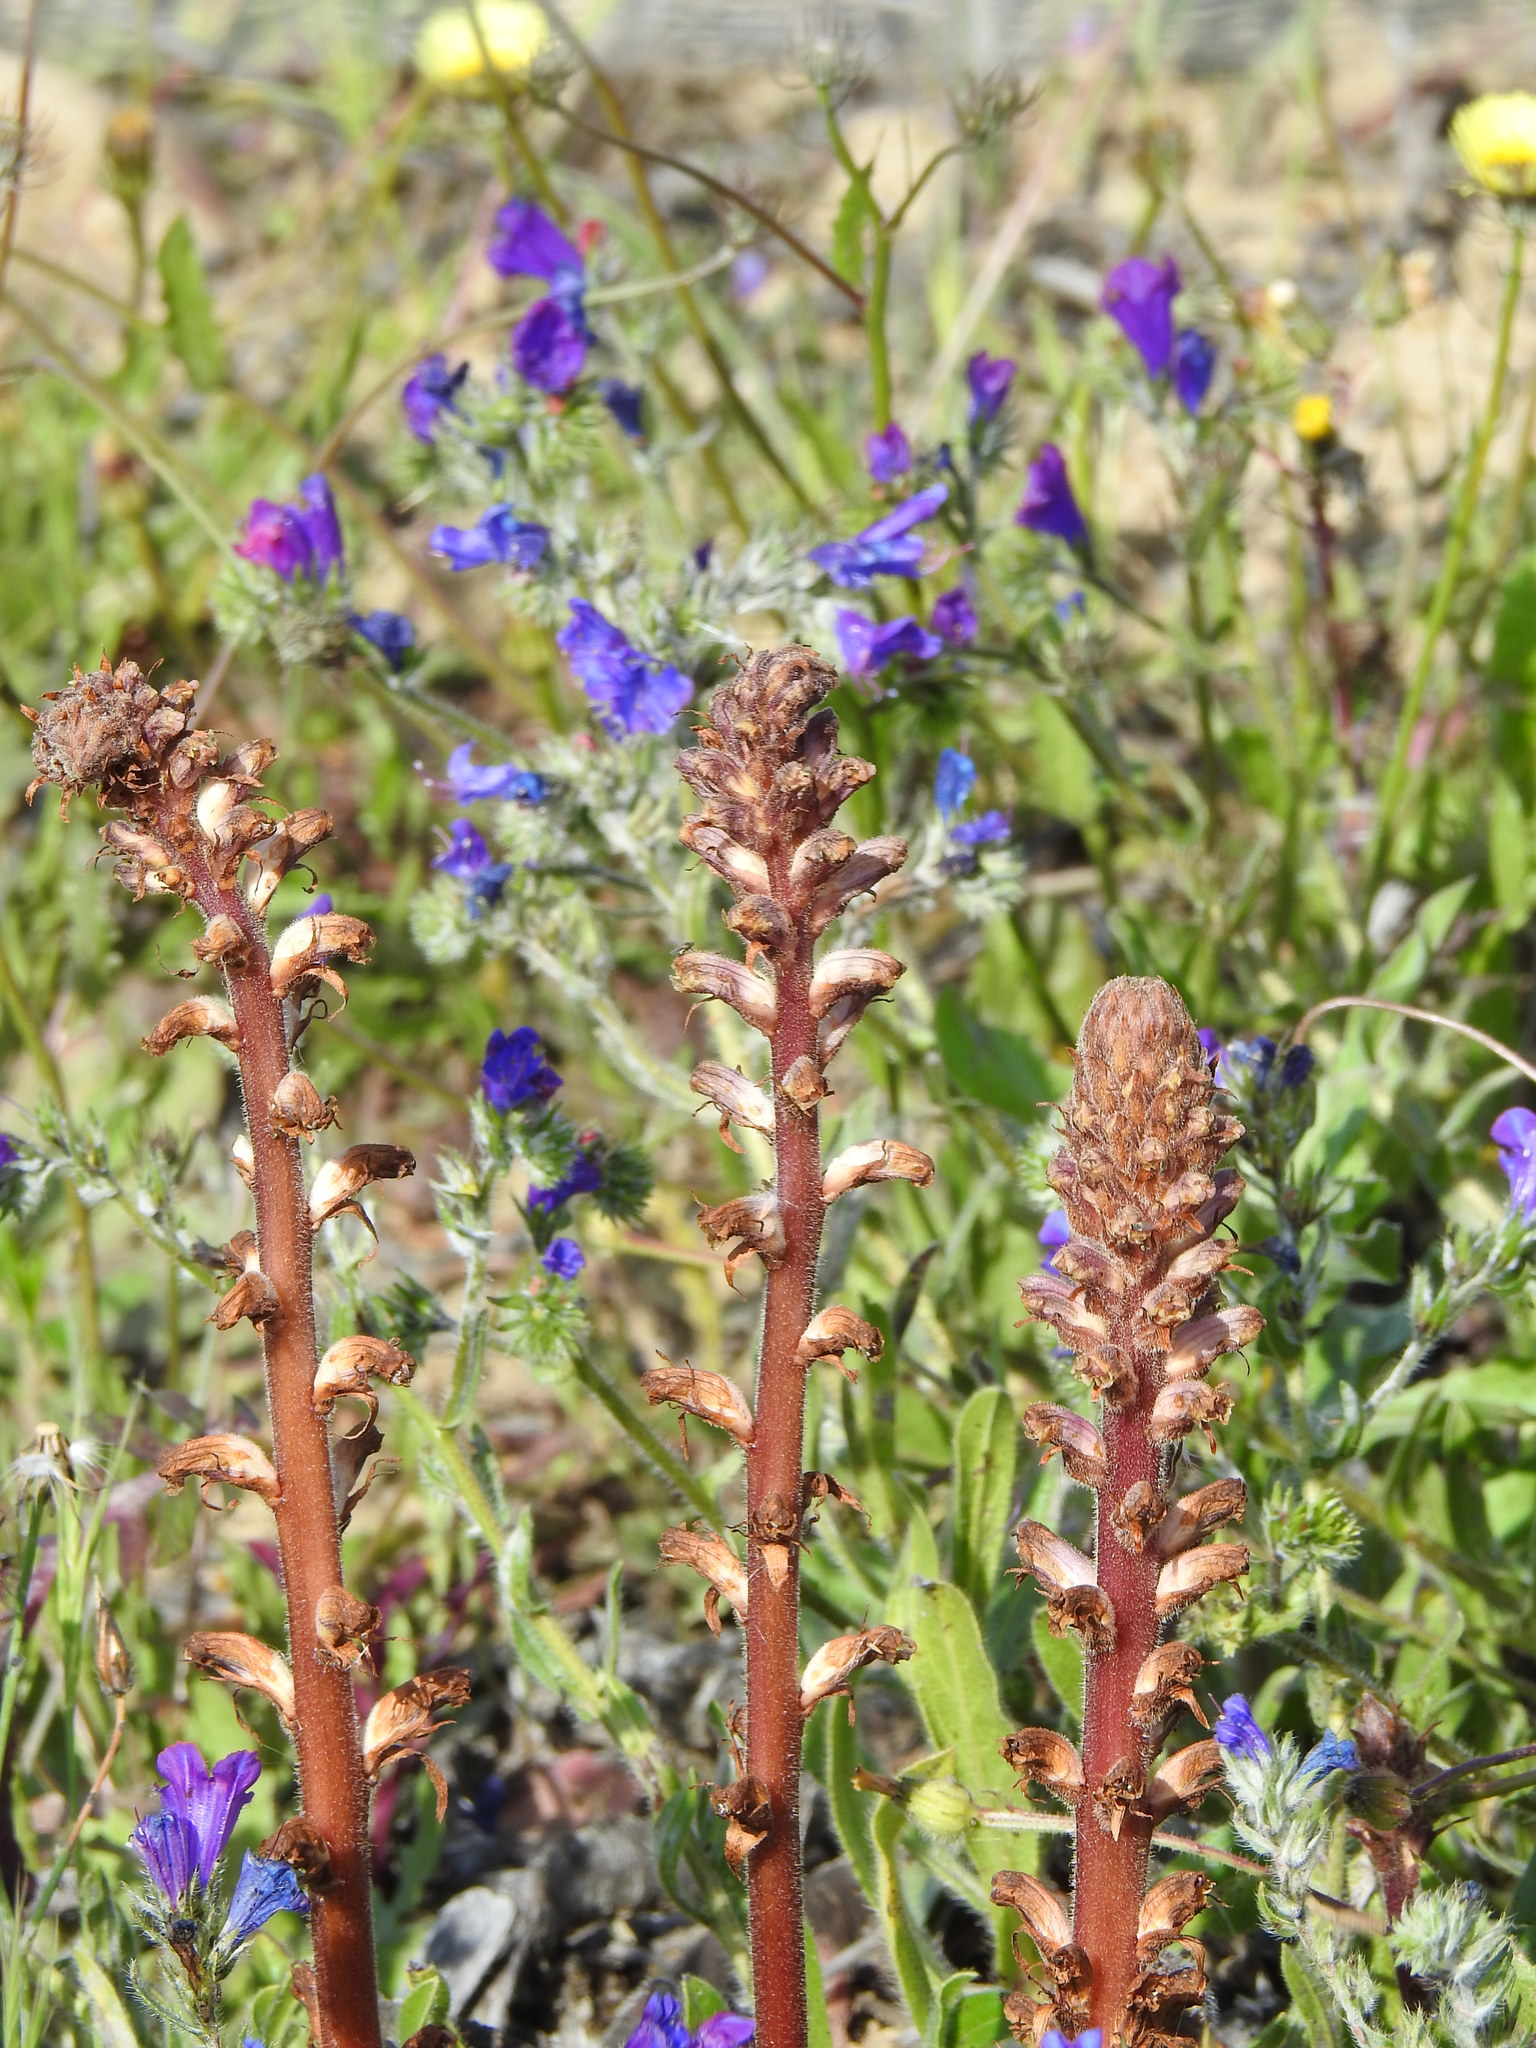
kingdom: Plantae
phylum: Tracheophyta
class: Magnoliopsida
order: Lamiales
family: Orobanchaceae
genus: Orobanche
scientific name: Orobanche minor
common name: Common broomrape
